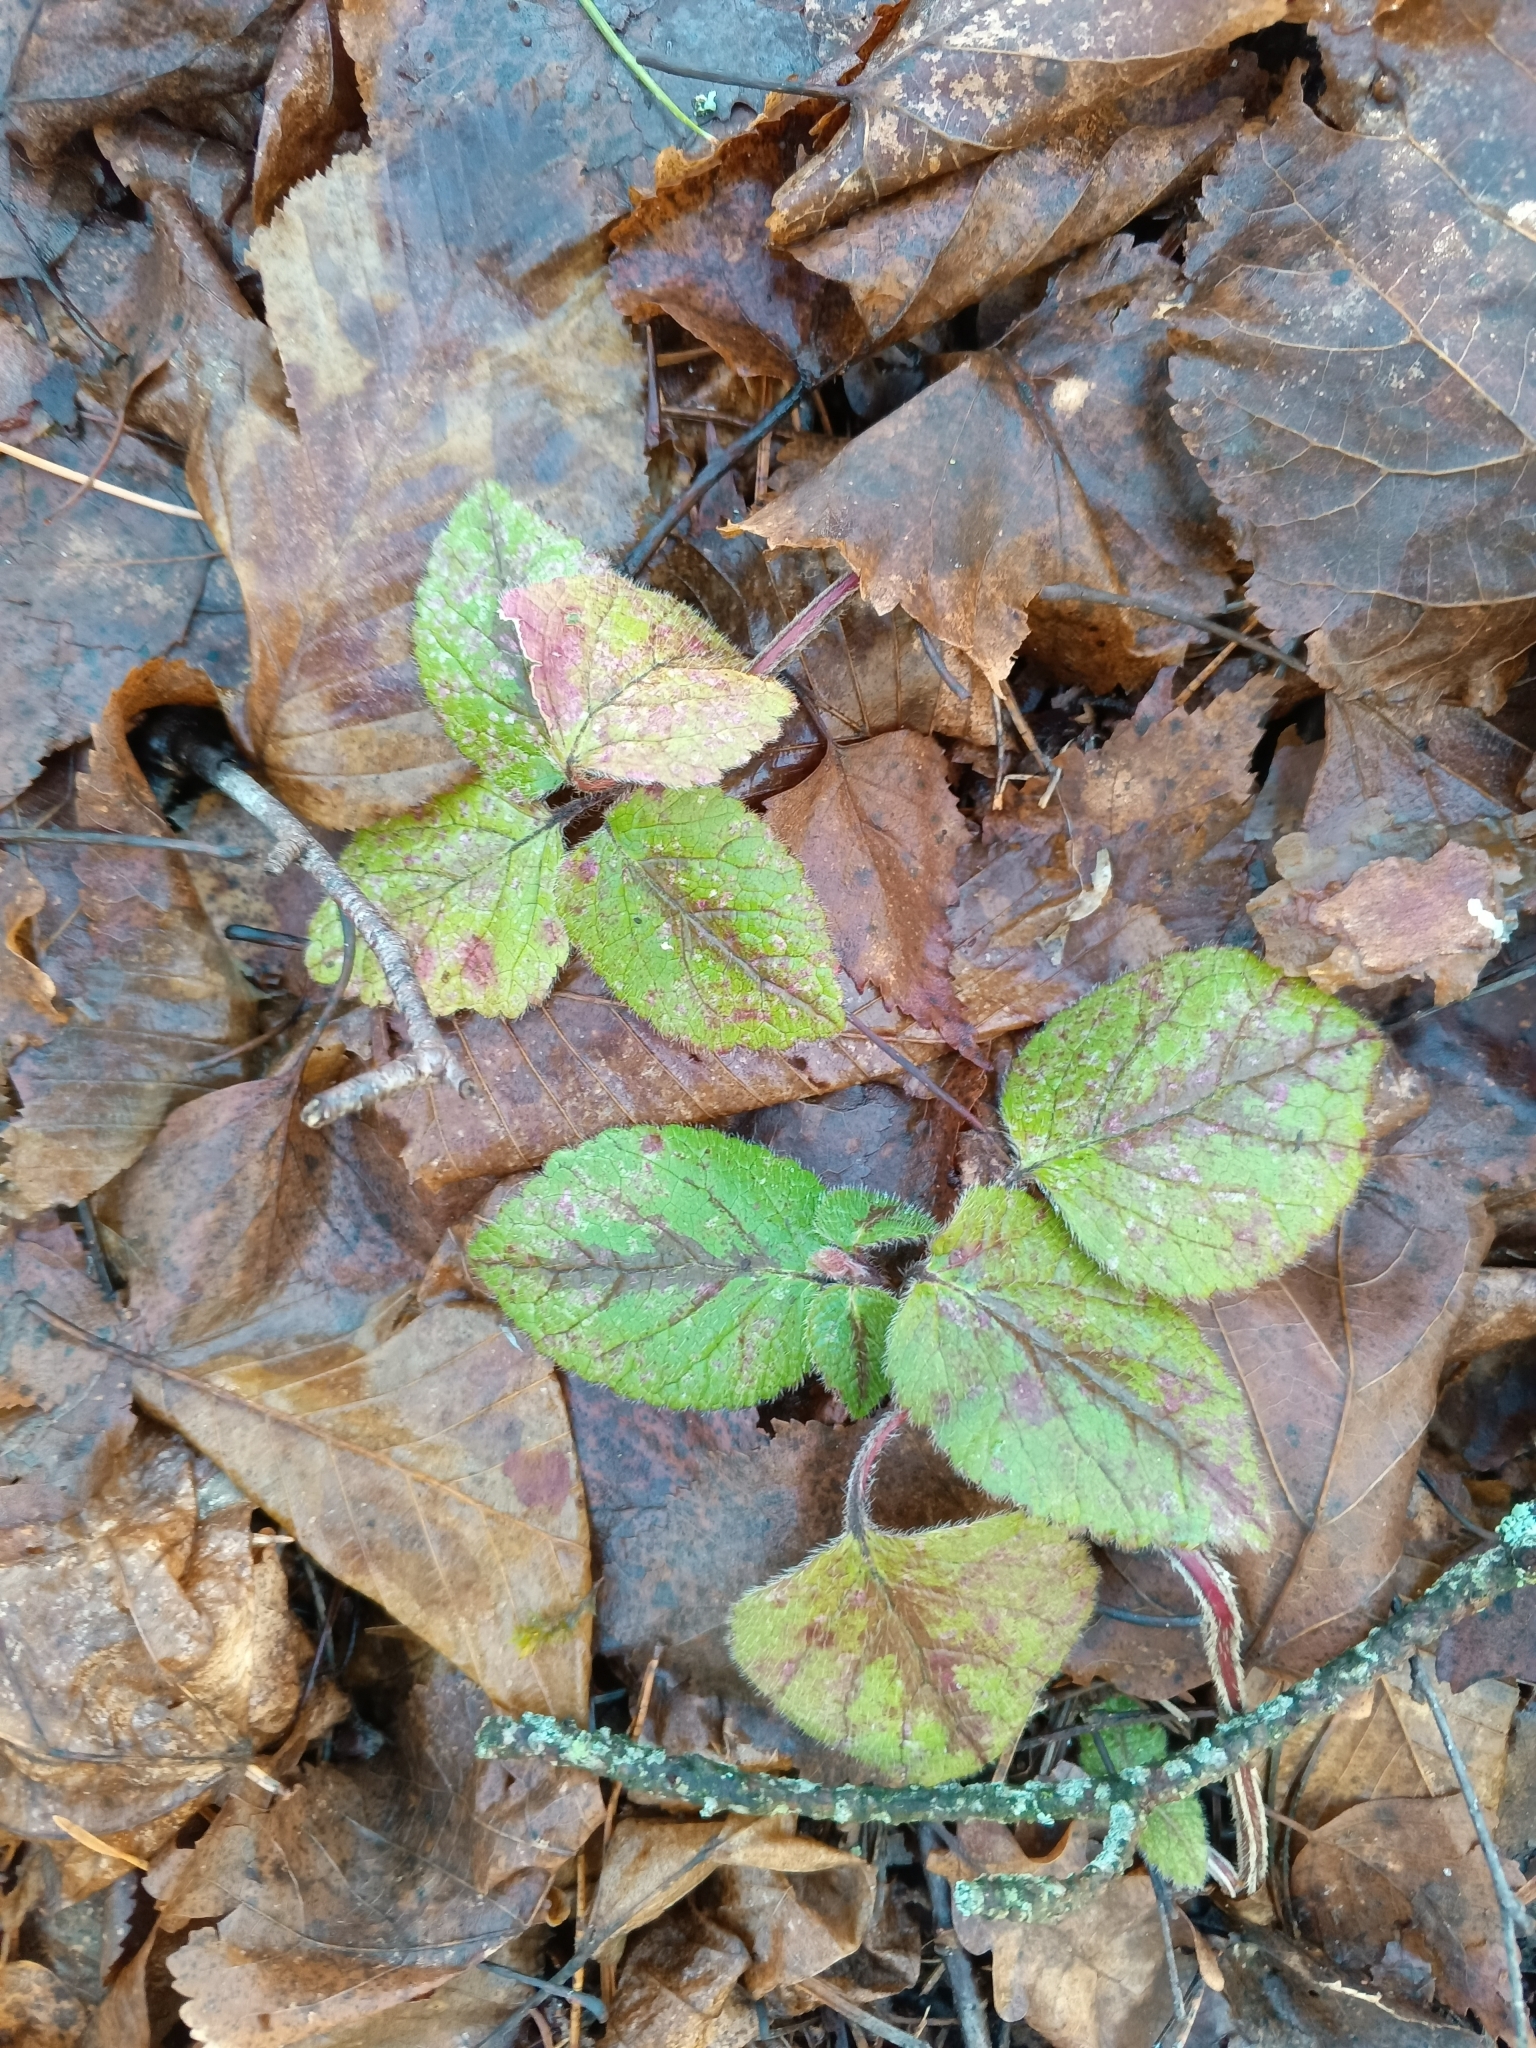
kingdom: Plantae
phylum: Tracheophyta
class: Magnoliopsida
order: Lamiales
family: Lamiaceae
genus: Lamium
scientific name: Lamium galeobdolon
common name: Yellow archangel
